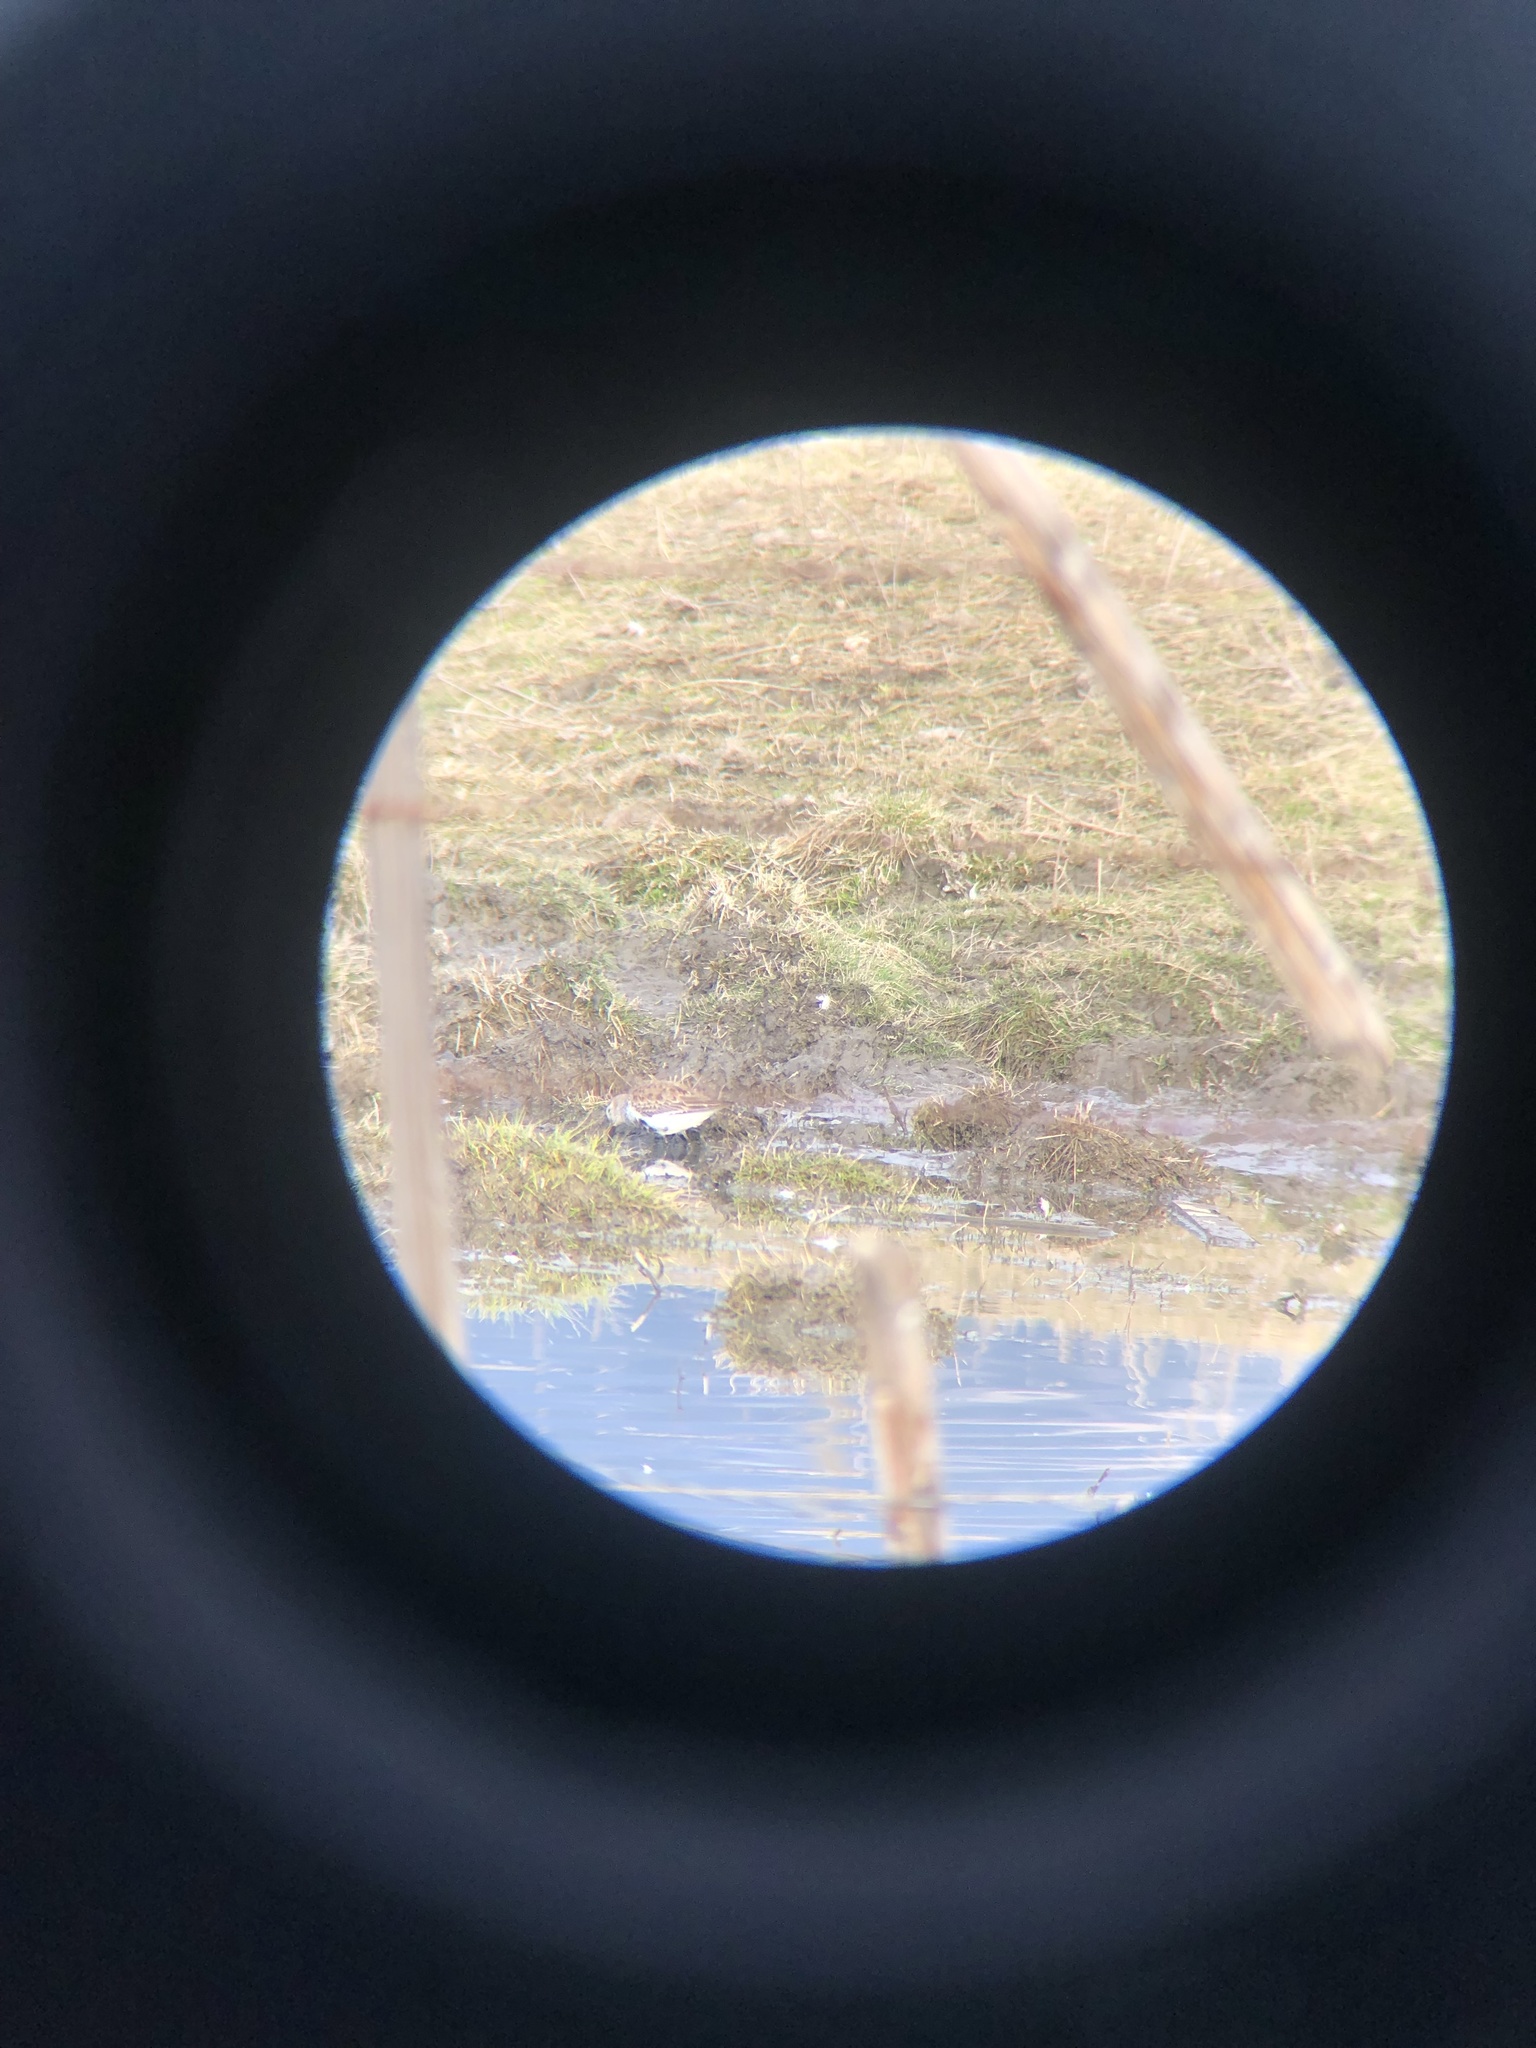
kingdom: Animalia
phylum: Chordata
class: Aves
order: Charadriiformes
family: Scolopacidae
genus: Calidris
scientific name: Calidris alpina
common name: Dunlin
